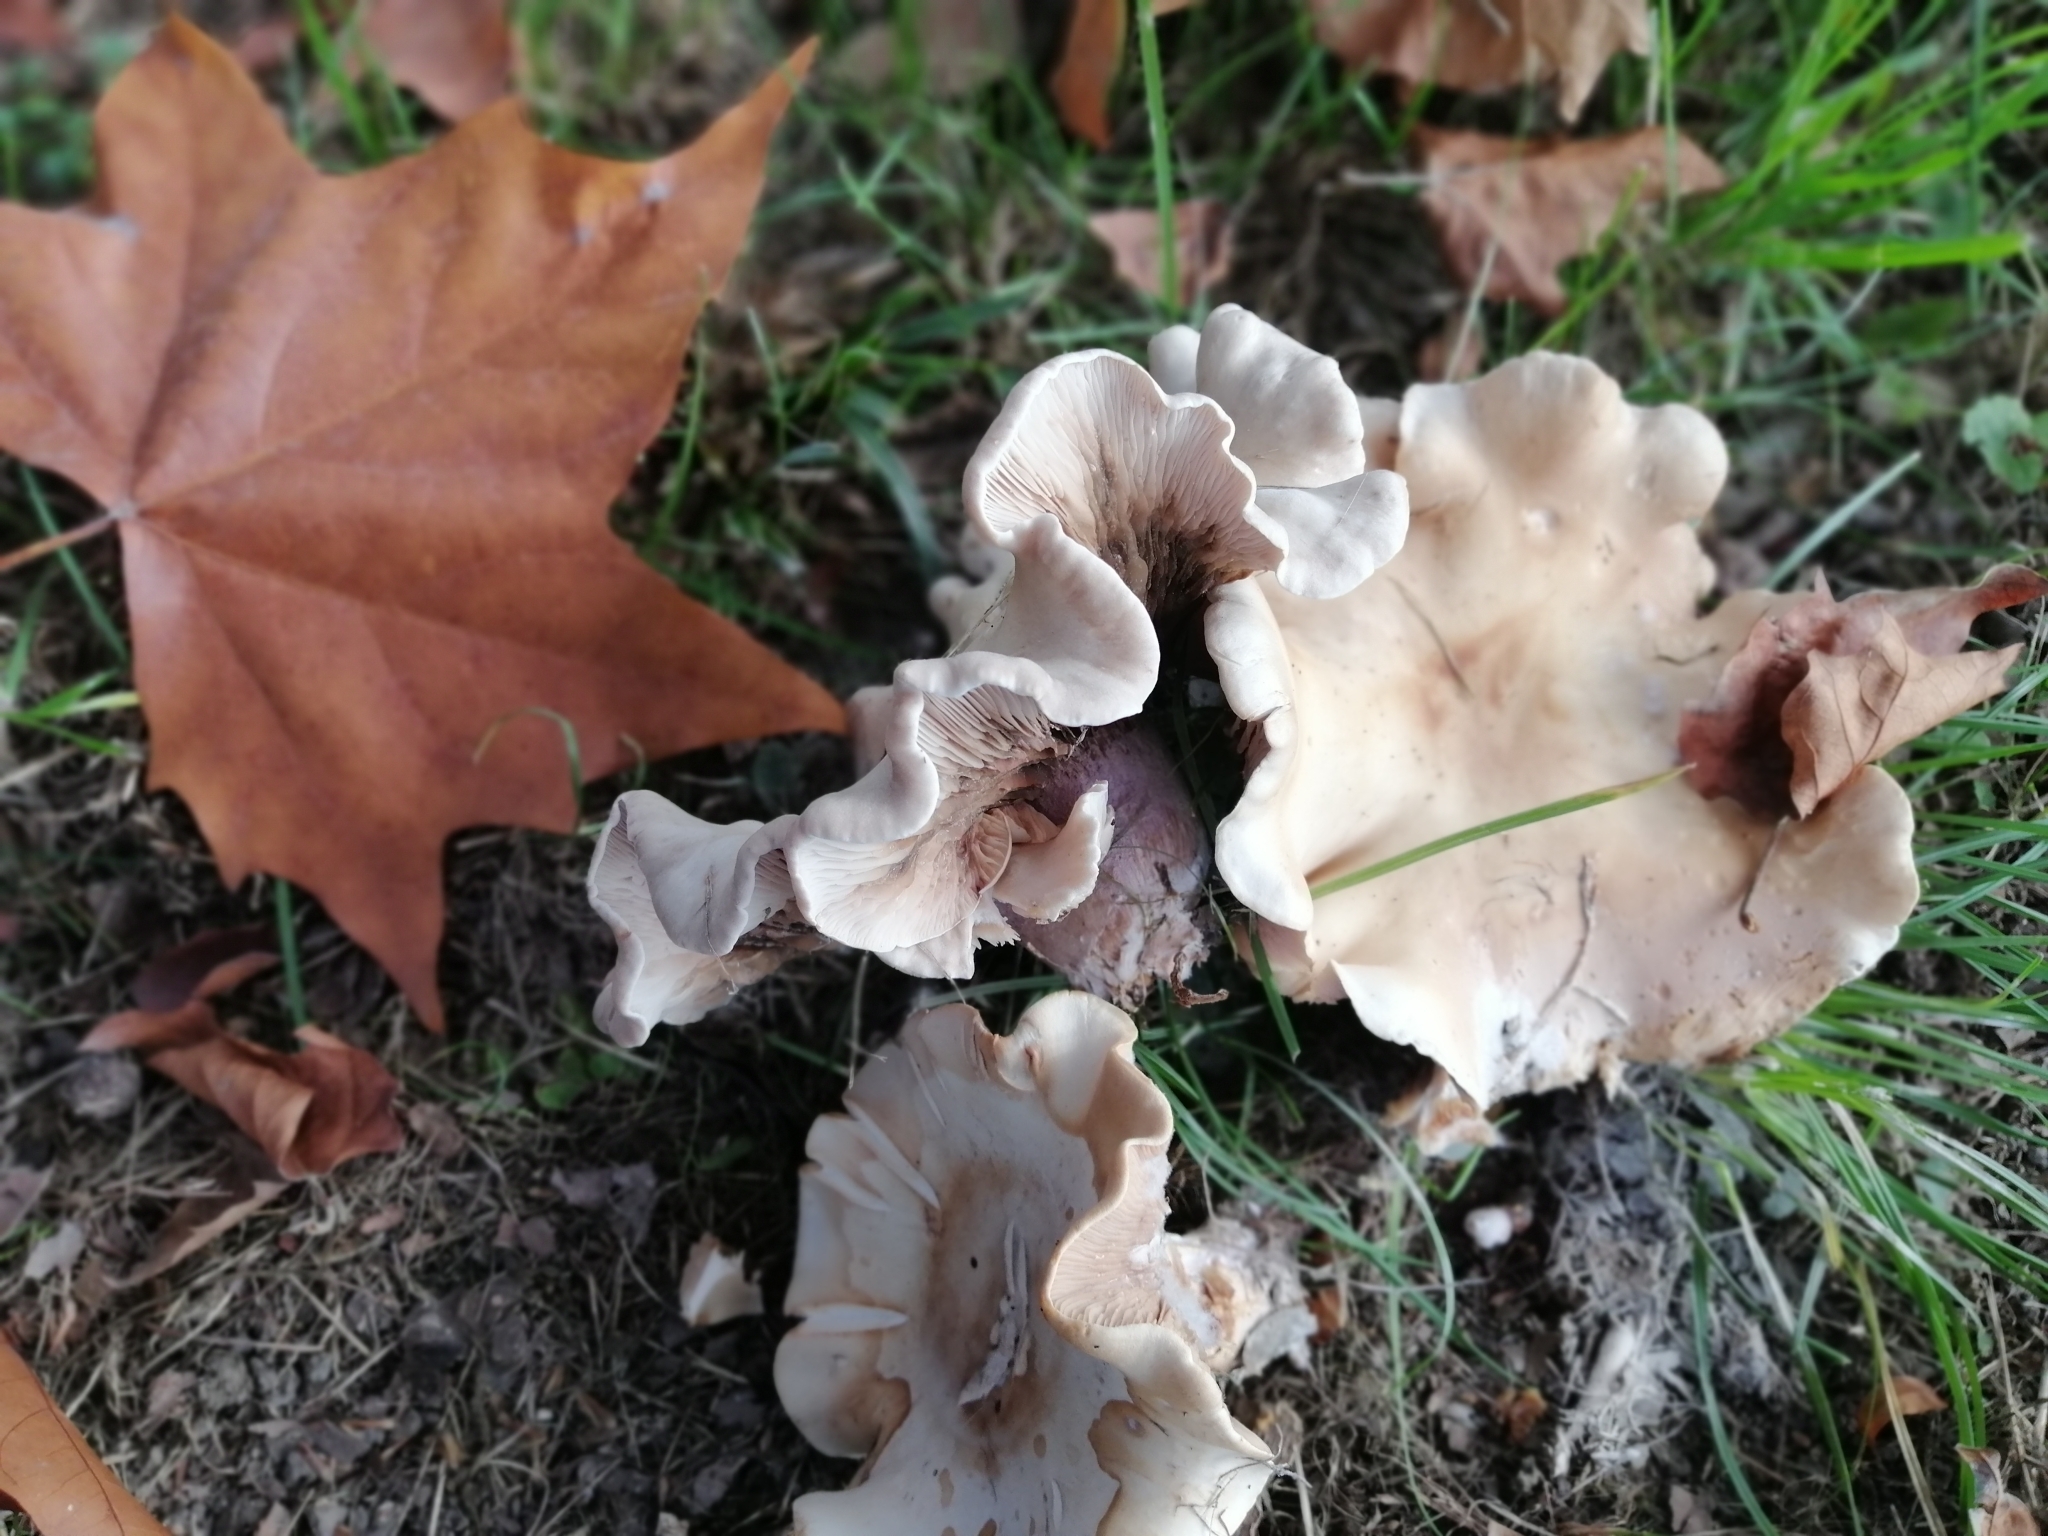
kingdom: Fungi
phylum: Basidiomycota
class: Agaricomycetes
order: Agaricales
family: Omphalotaceae
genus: Collybiopsis
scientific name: Collybiopsis peronata
